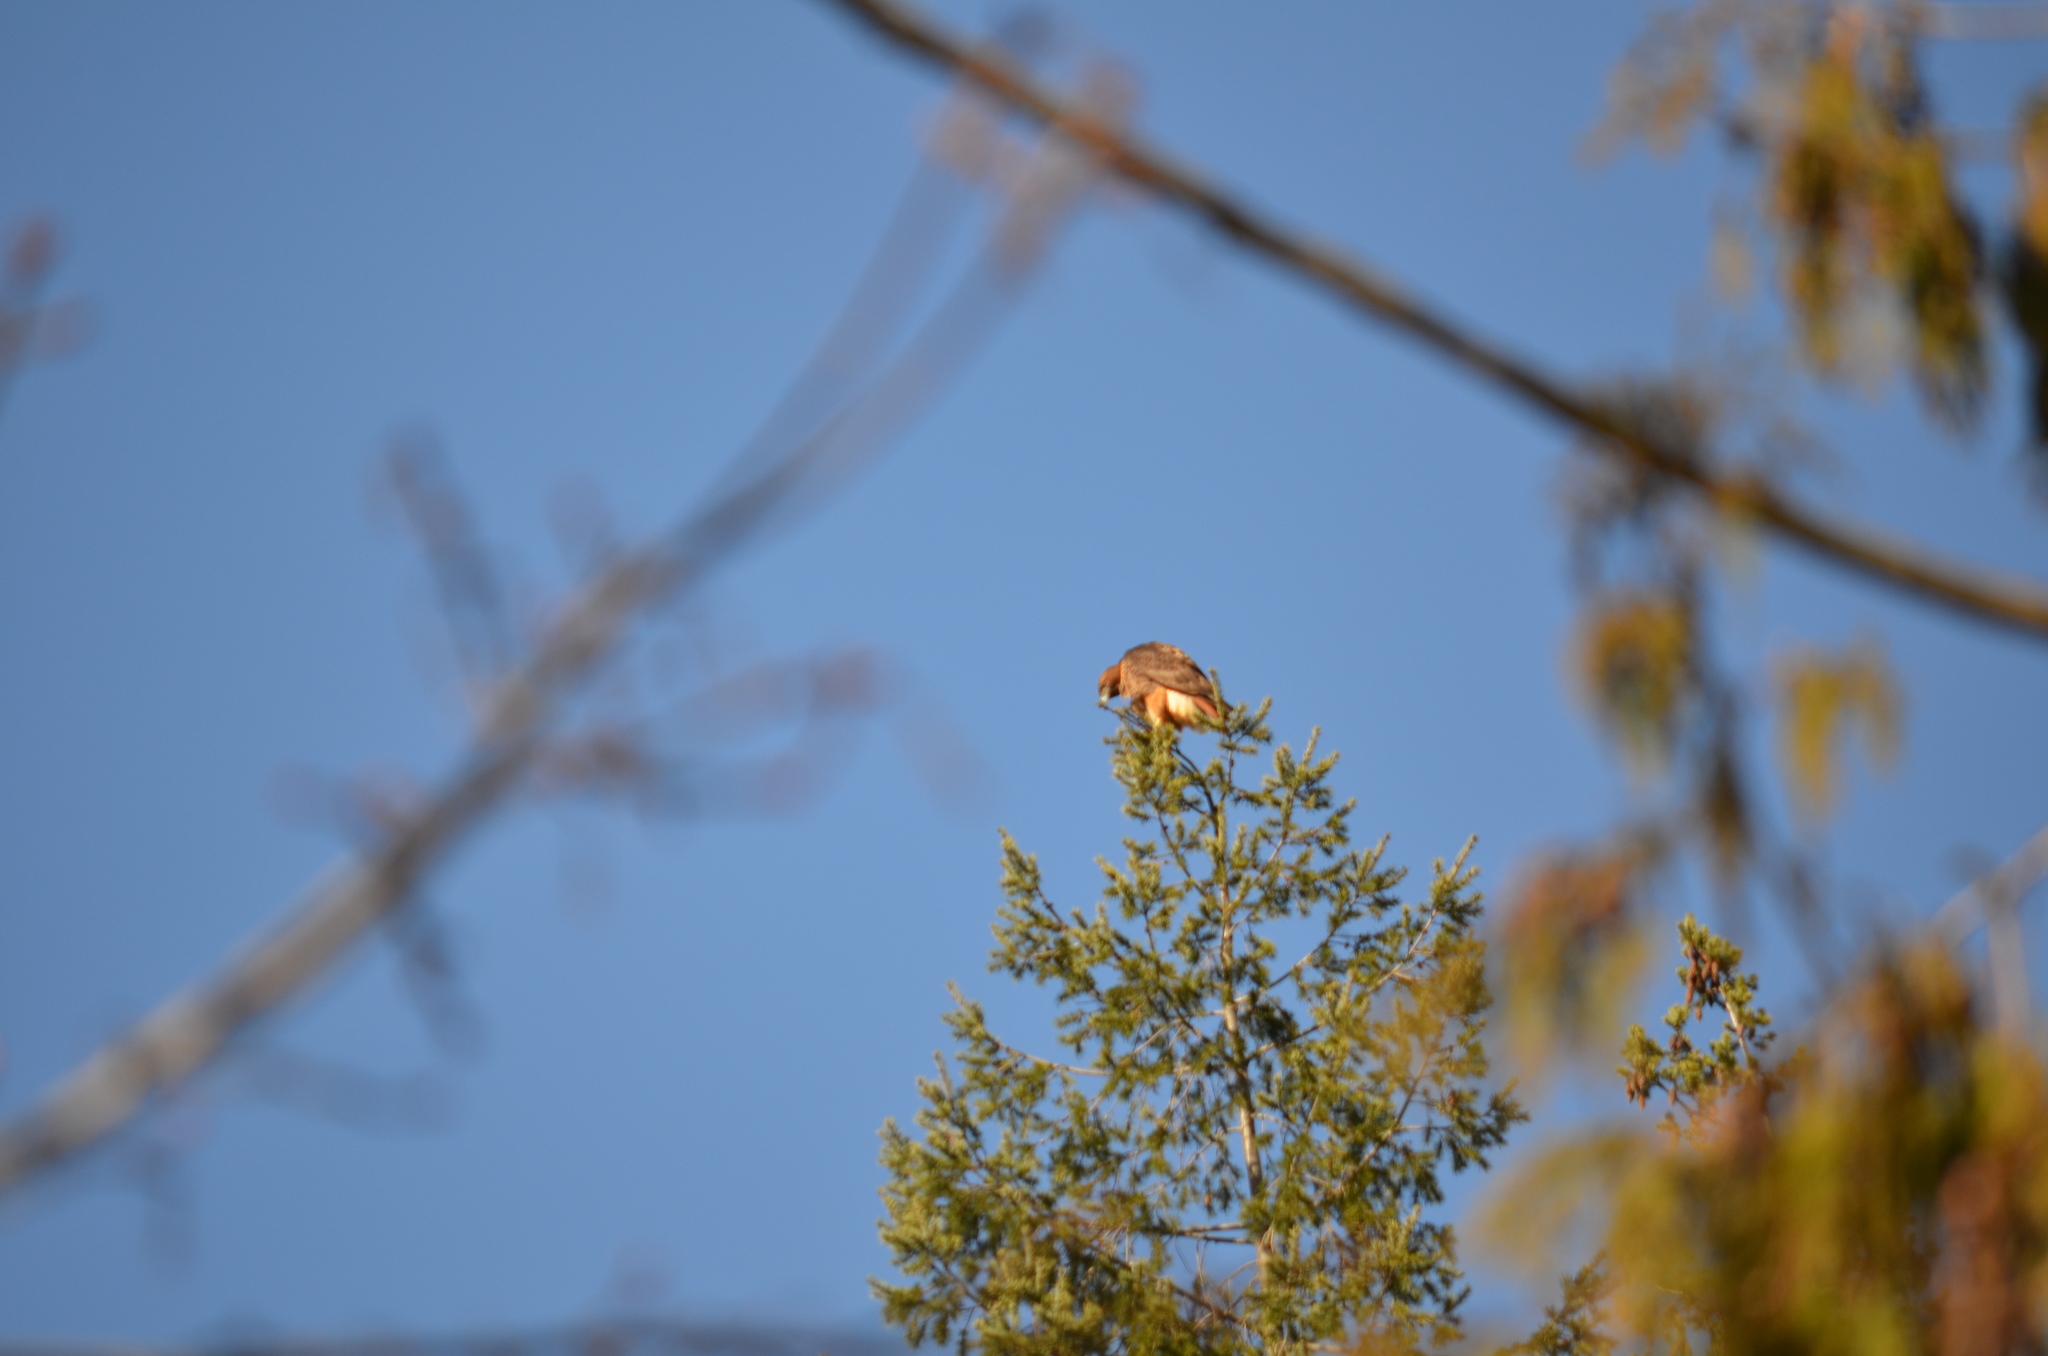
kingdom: Animalia
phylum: Chordata
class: Aves
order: Accipitriformes
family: Accipitridae
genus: Buteo
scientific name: Buteo jamaicensis
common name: Red-tailed hawk
